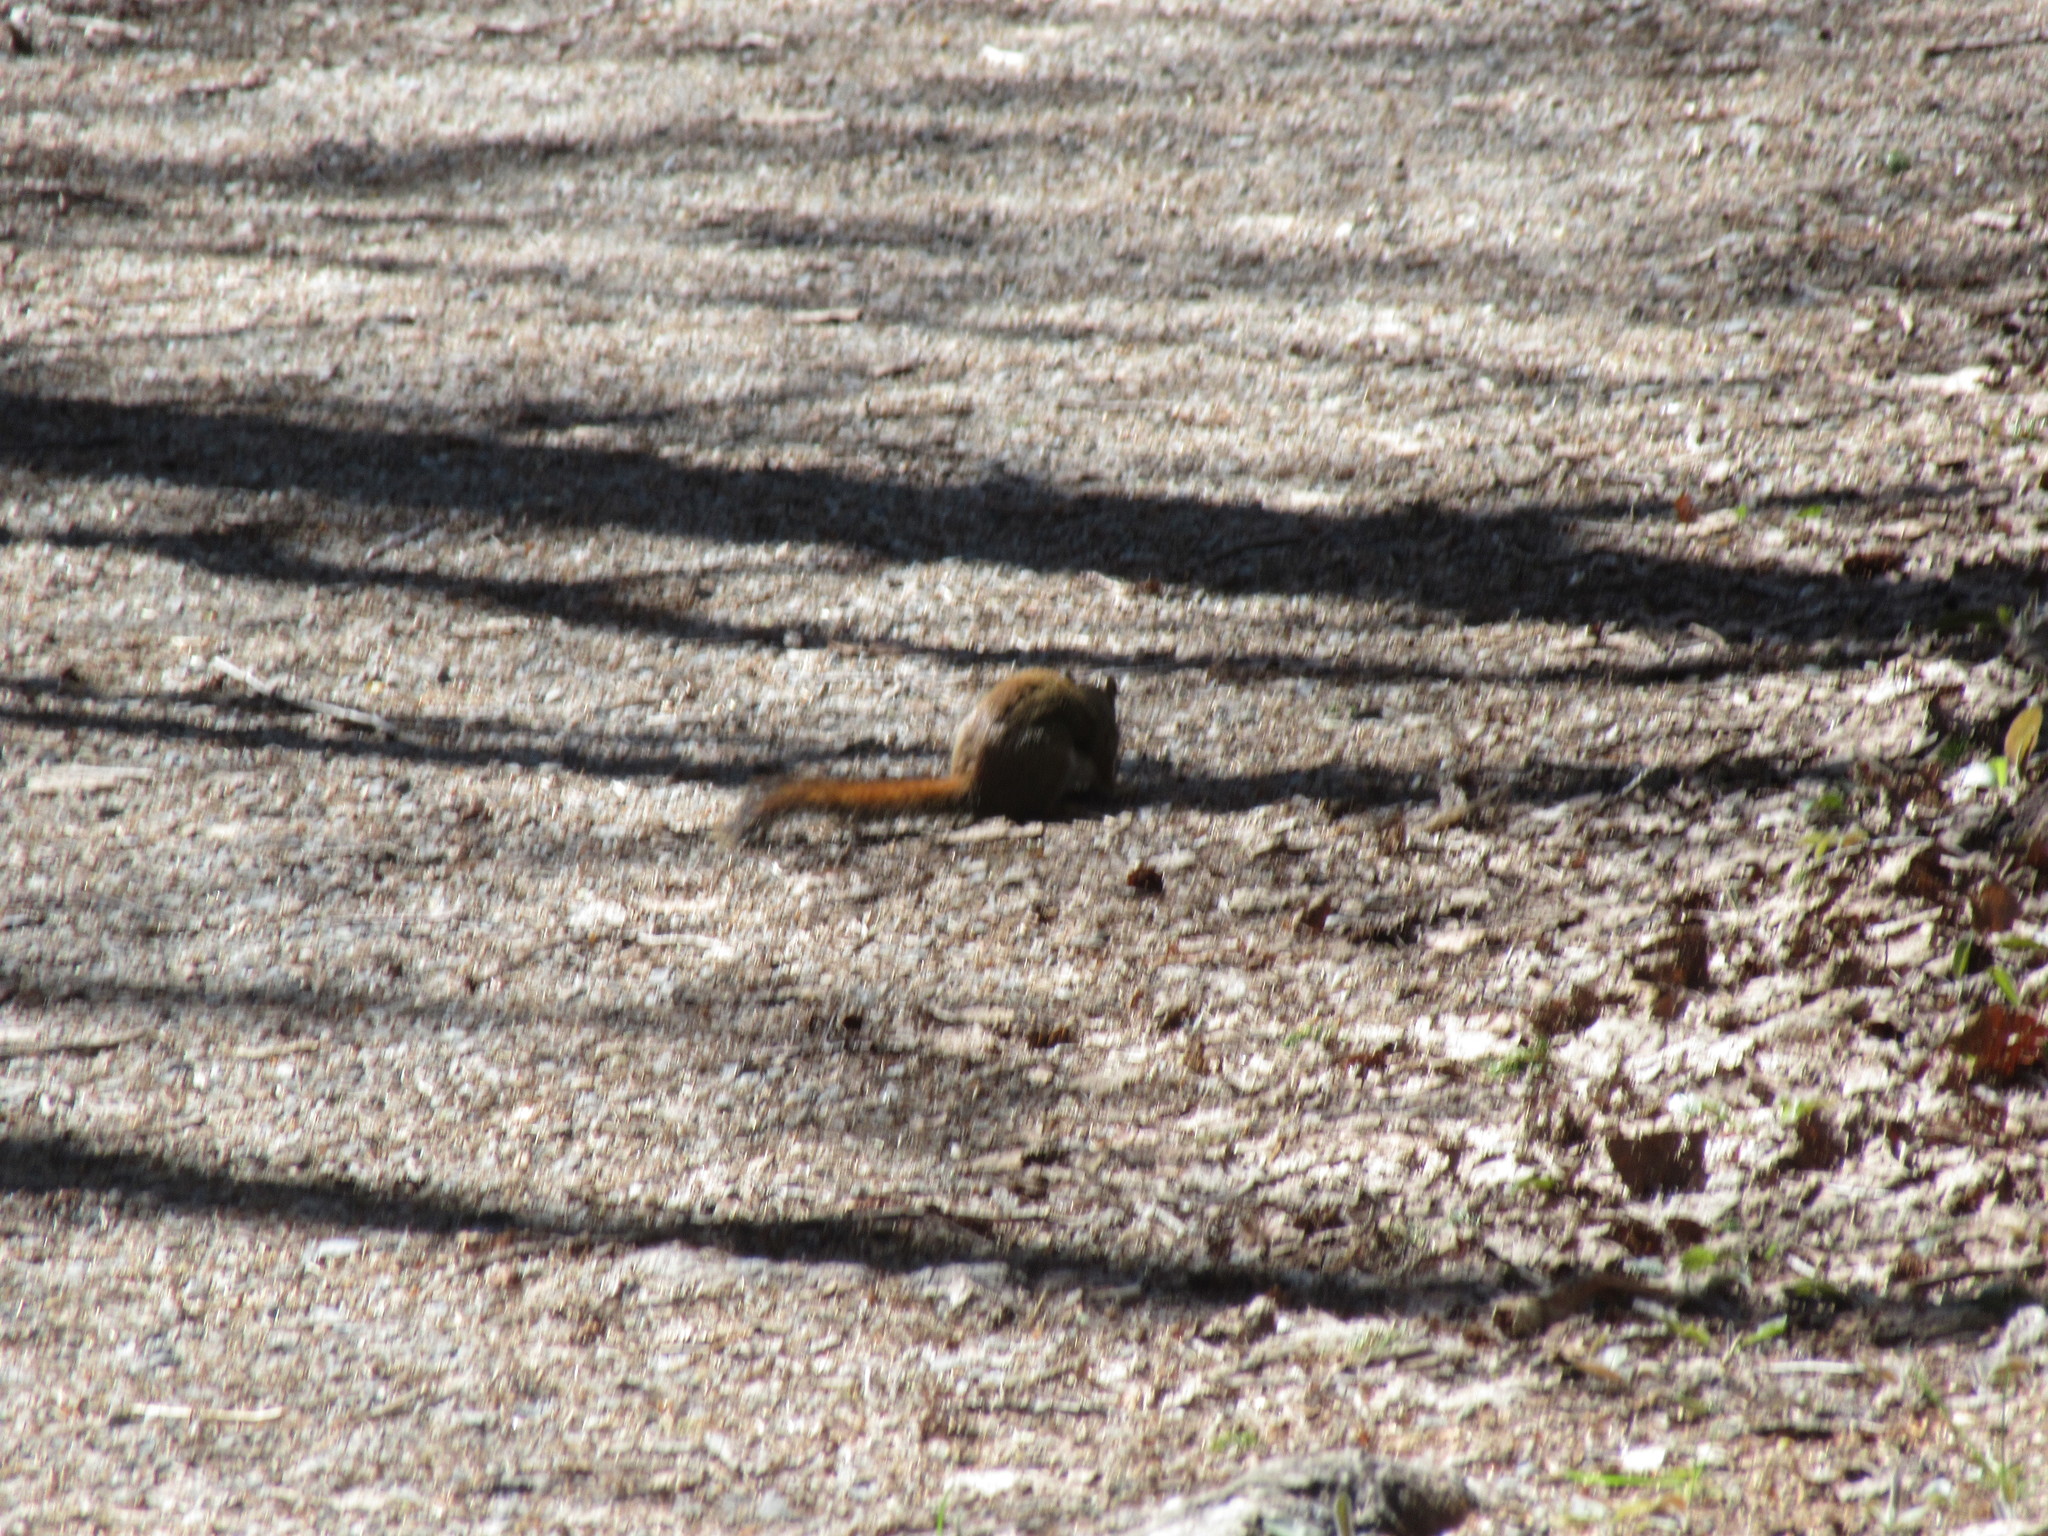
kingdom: Animalia
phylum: Chordata
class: Mammalia
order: Rodentia
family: Sciuridae
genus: Tamiasciurus
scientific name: Tamiasciurus hudsonicus
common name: Red squirrel
